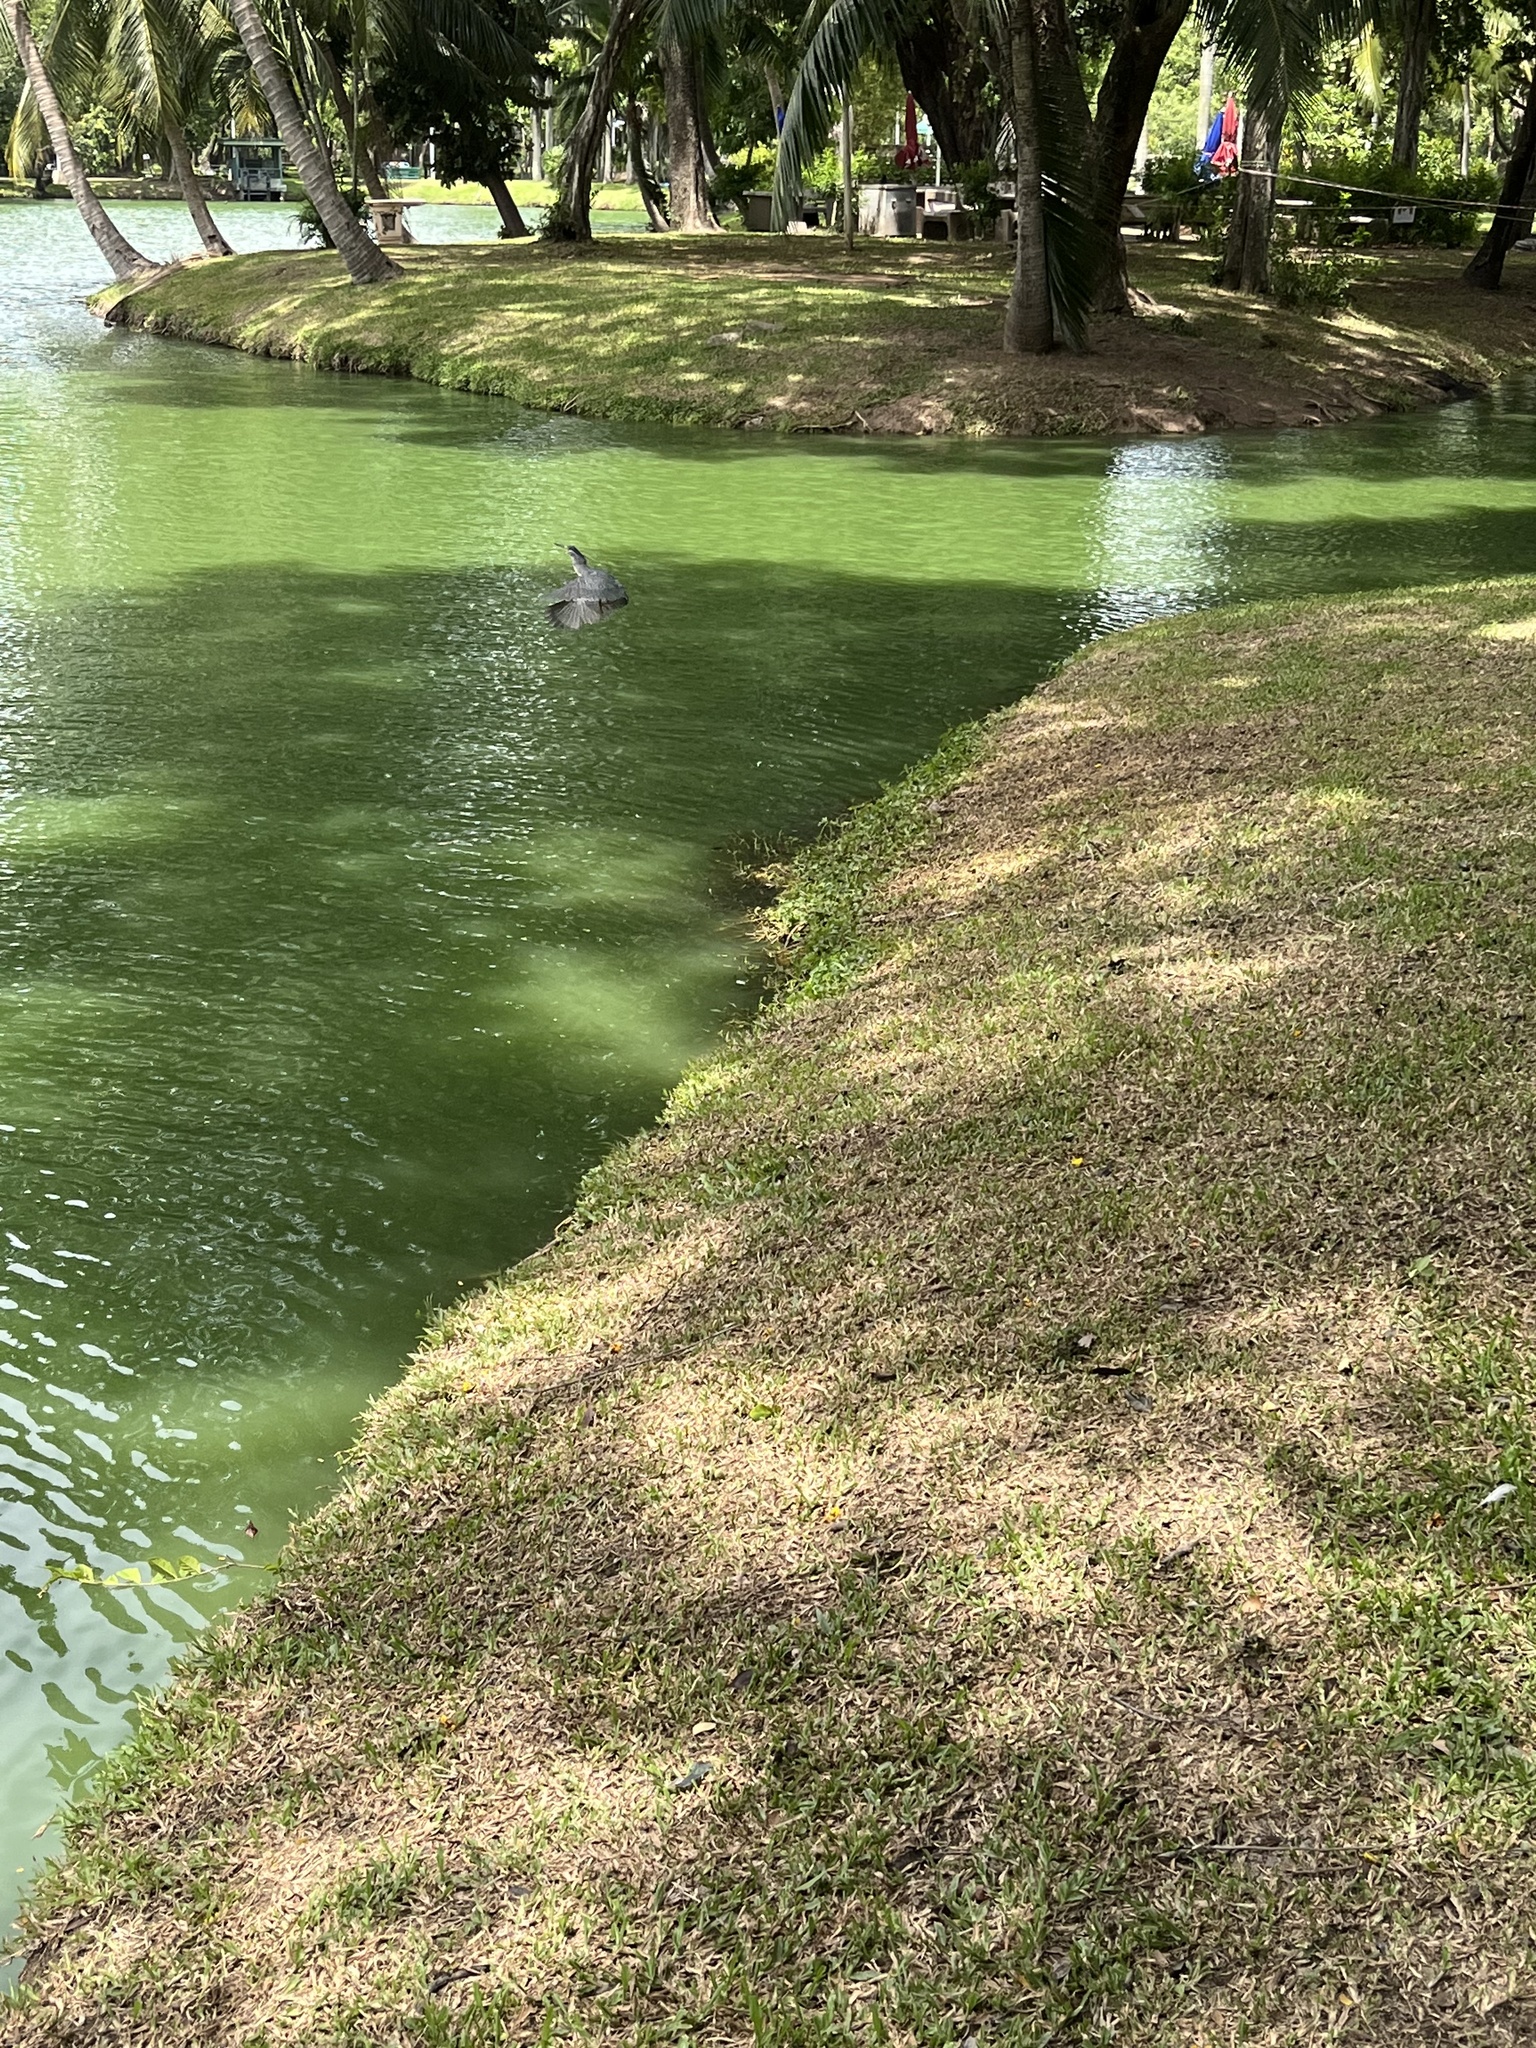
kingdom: Animalia
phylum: Chordata
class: Aves
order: Pelecaniformes
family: Ardeidae
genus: Butorides
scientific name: Butorides striata
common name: Striated heron
